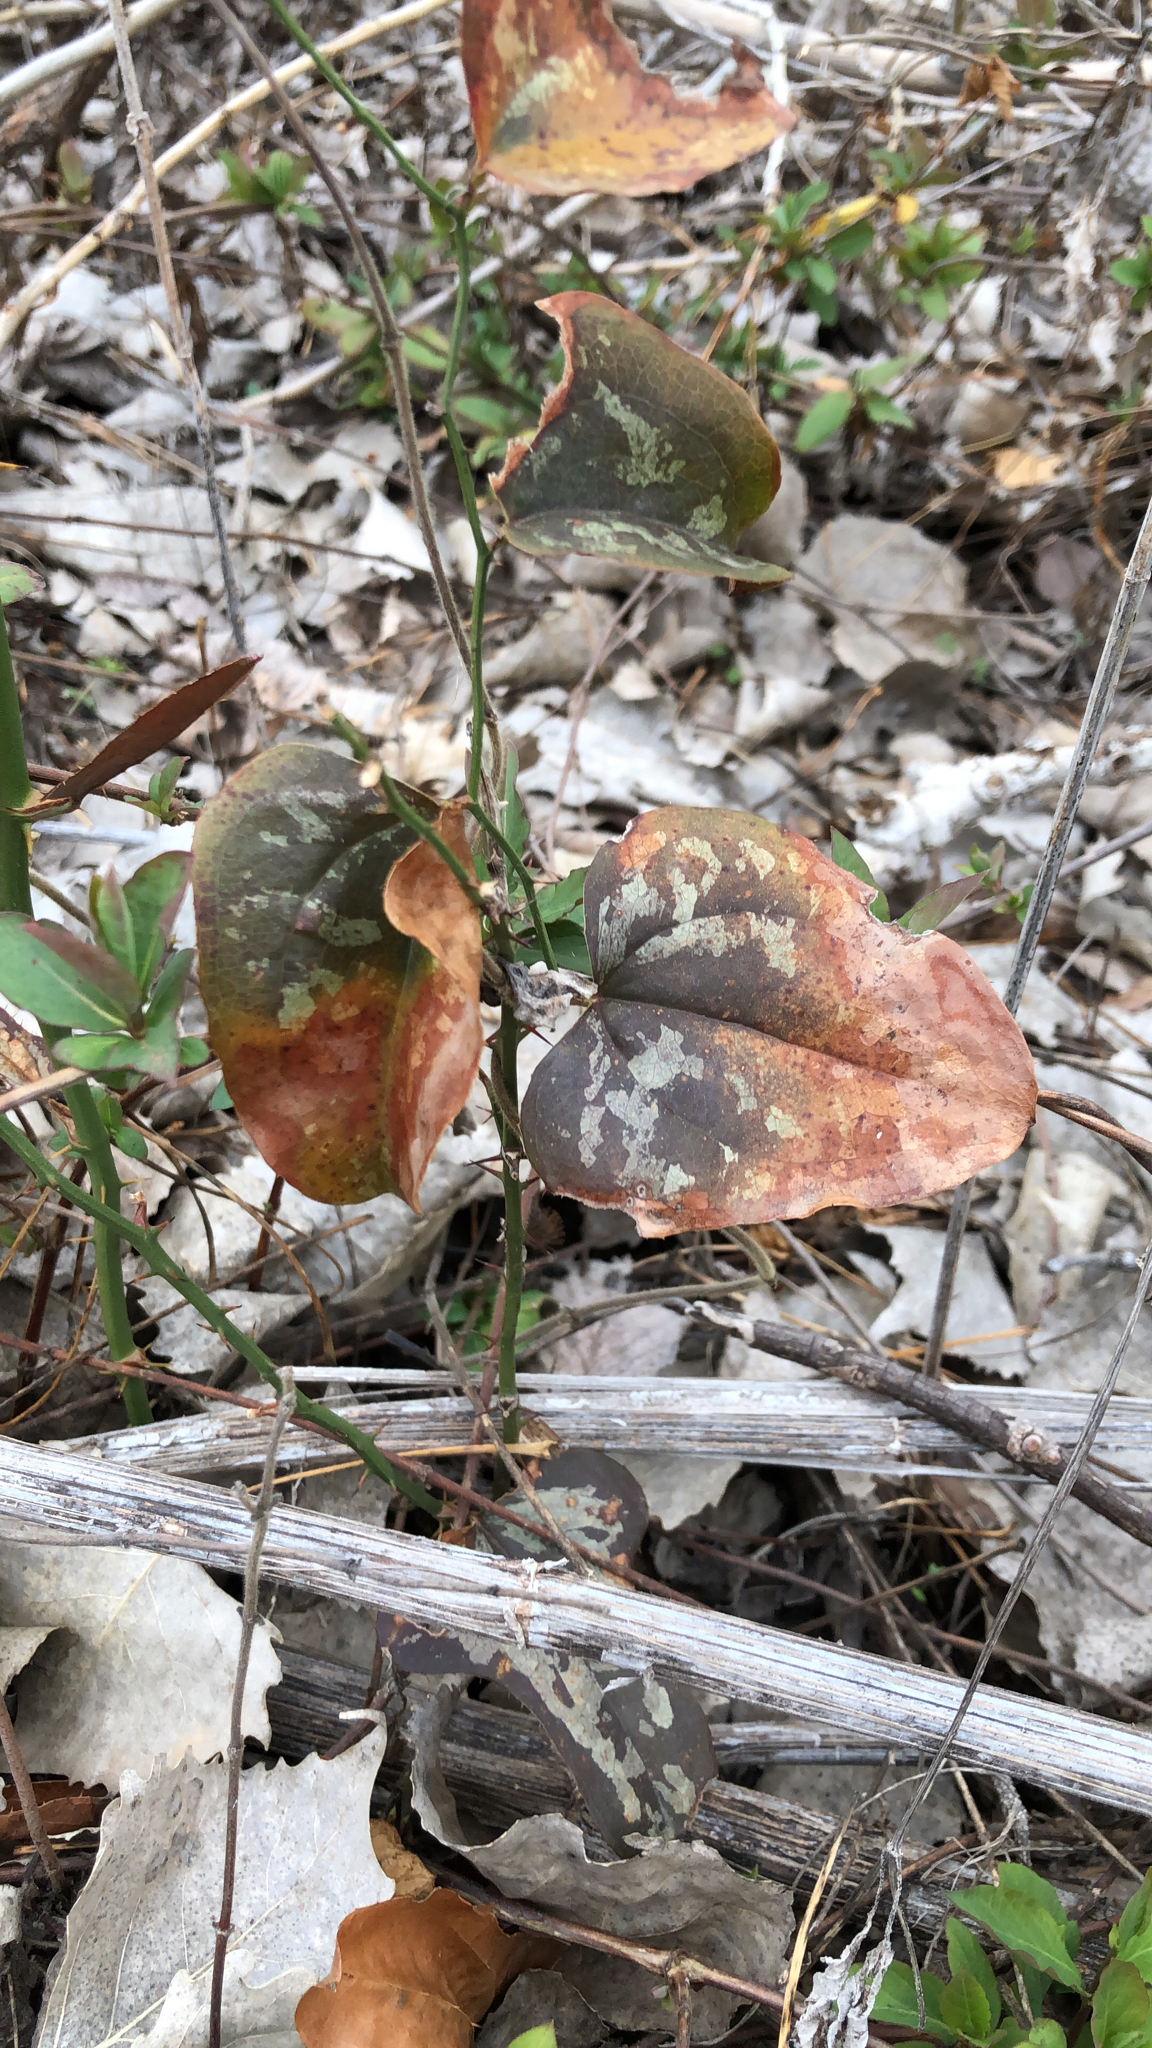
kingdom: Plantae
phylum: Tracheophyta
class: Liliopsida
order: Liliales
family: Smilacaceae
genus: Smilax
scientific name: Smilax bona-nox
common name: Catbrier
